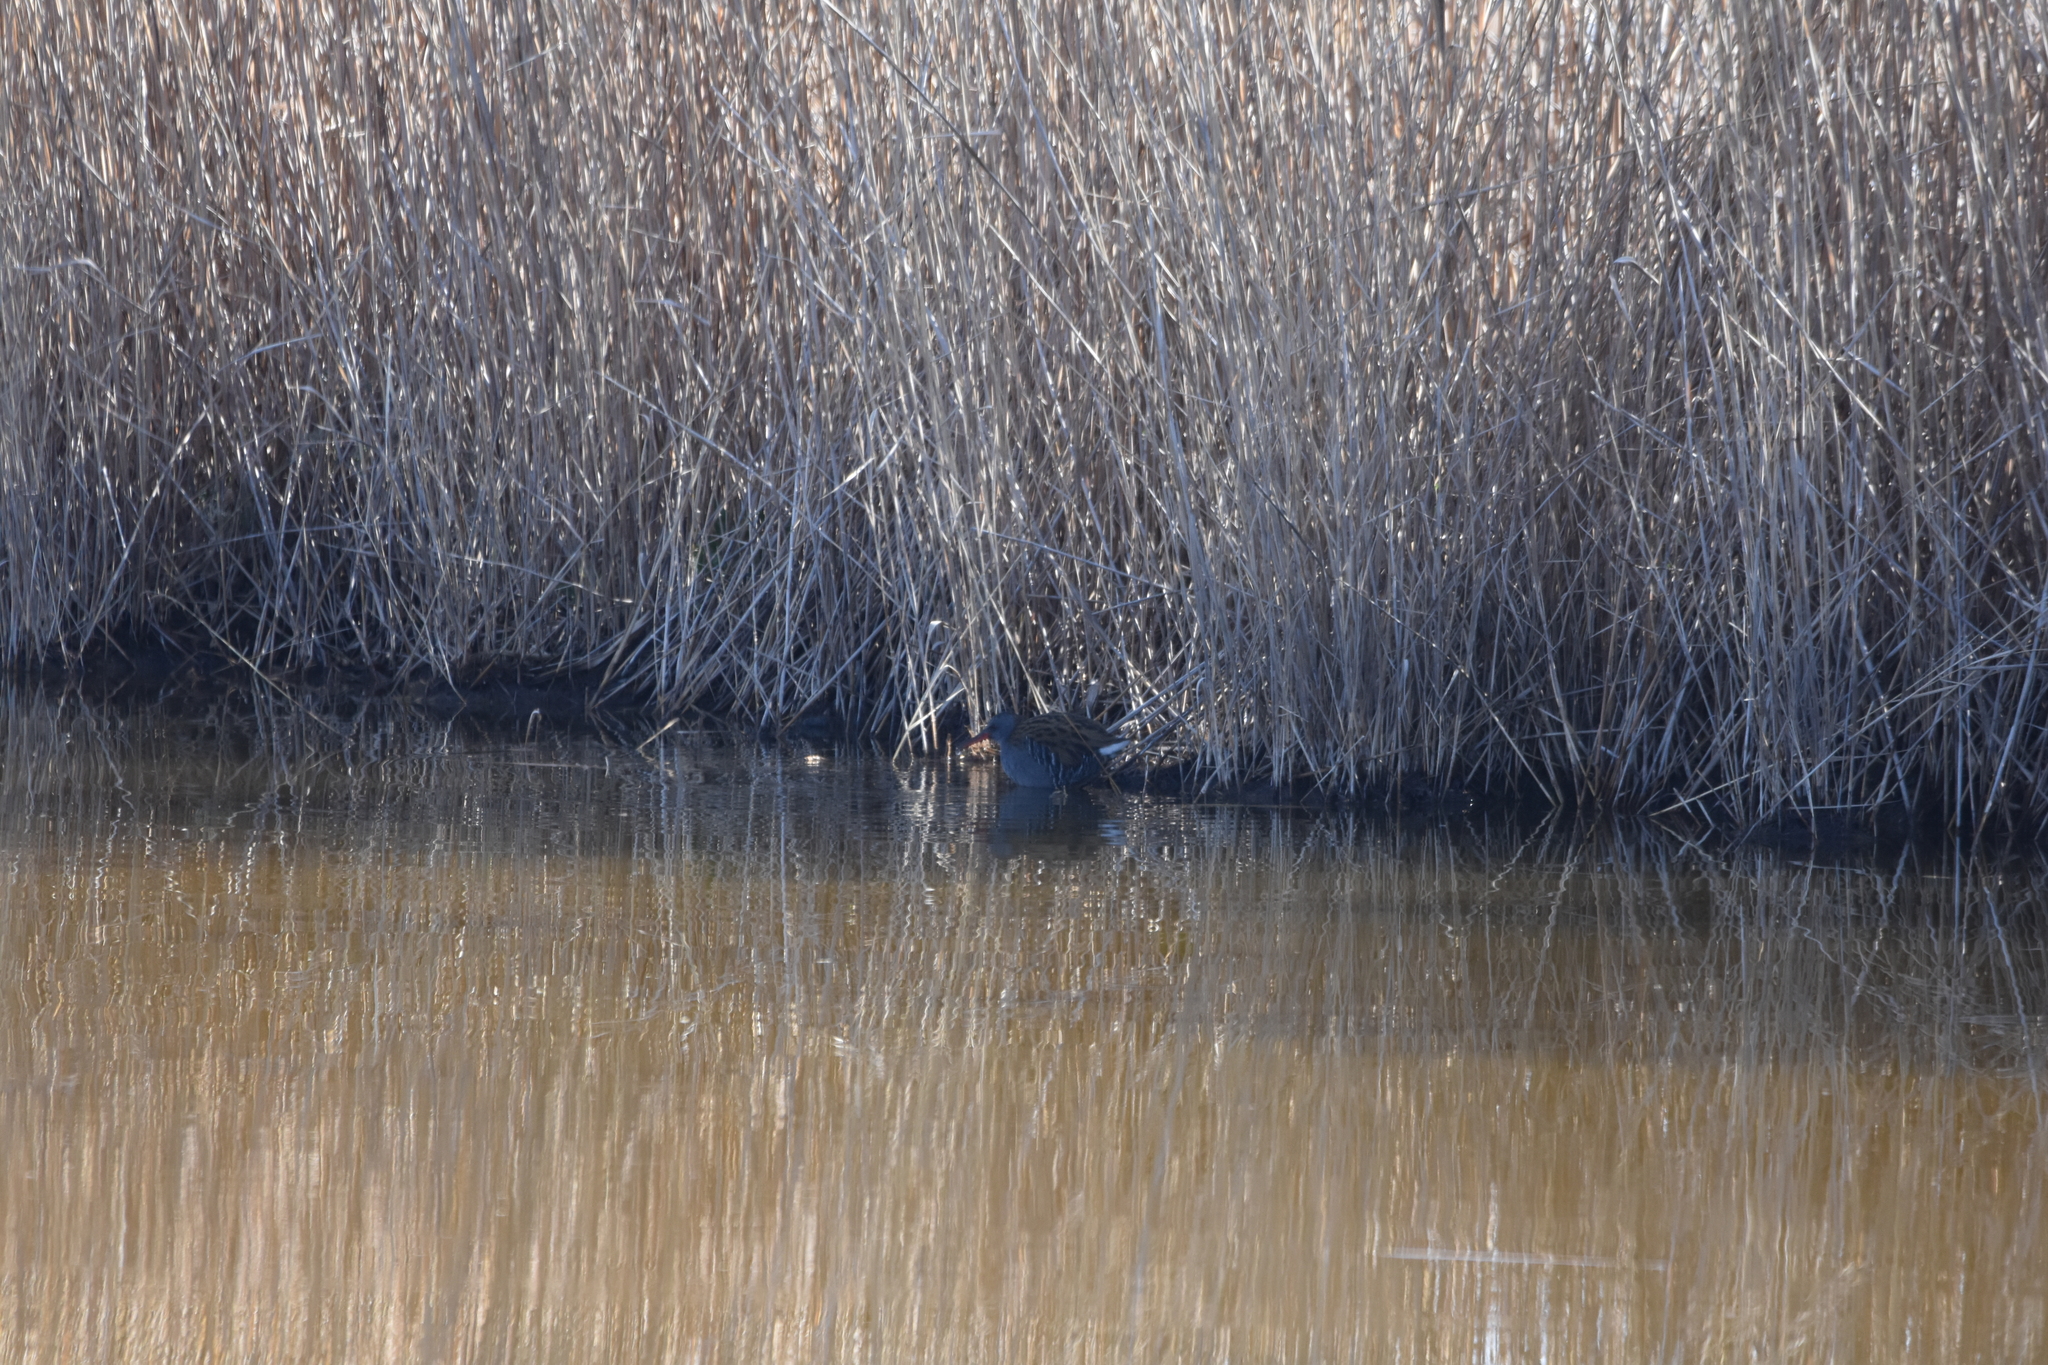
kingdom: Animalia
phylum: Chordata
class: Aves
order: Gruiformes
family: Rallidae
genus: Rallus
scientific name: Rallus aquaticus
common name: Water rail
